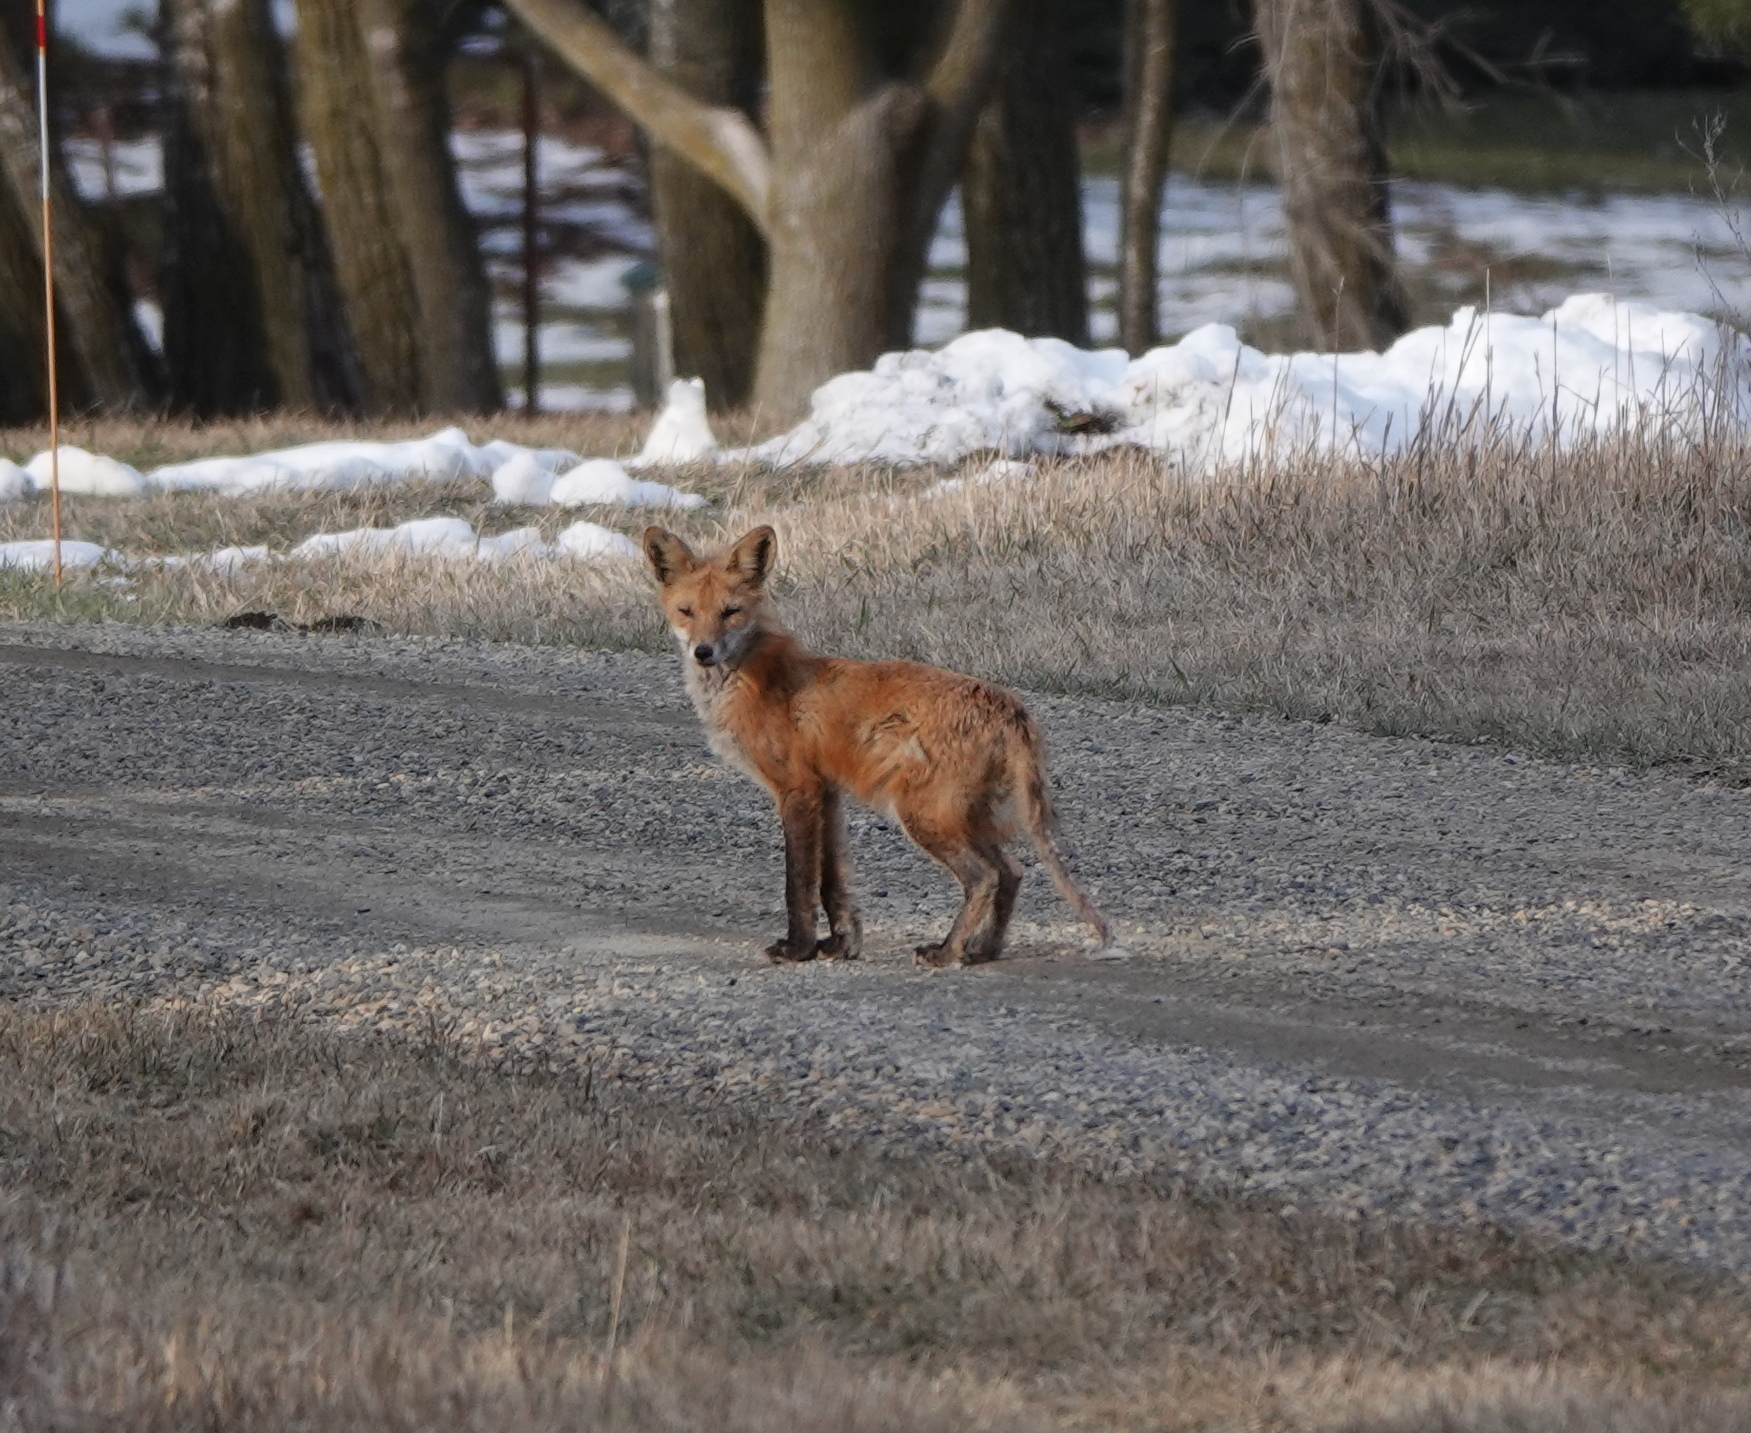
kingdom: Animalia
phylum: Chordata
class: Mammalia
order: Carnivora
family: Canidae
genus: Vulpes
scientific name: Vulpes vulpes
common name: Red fox
